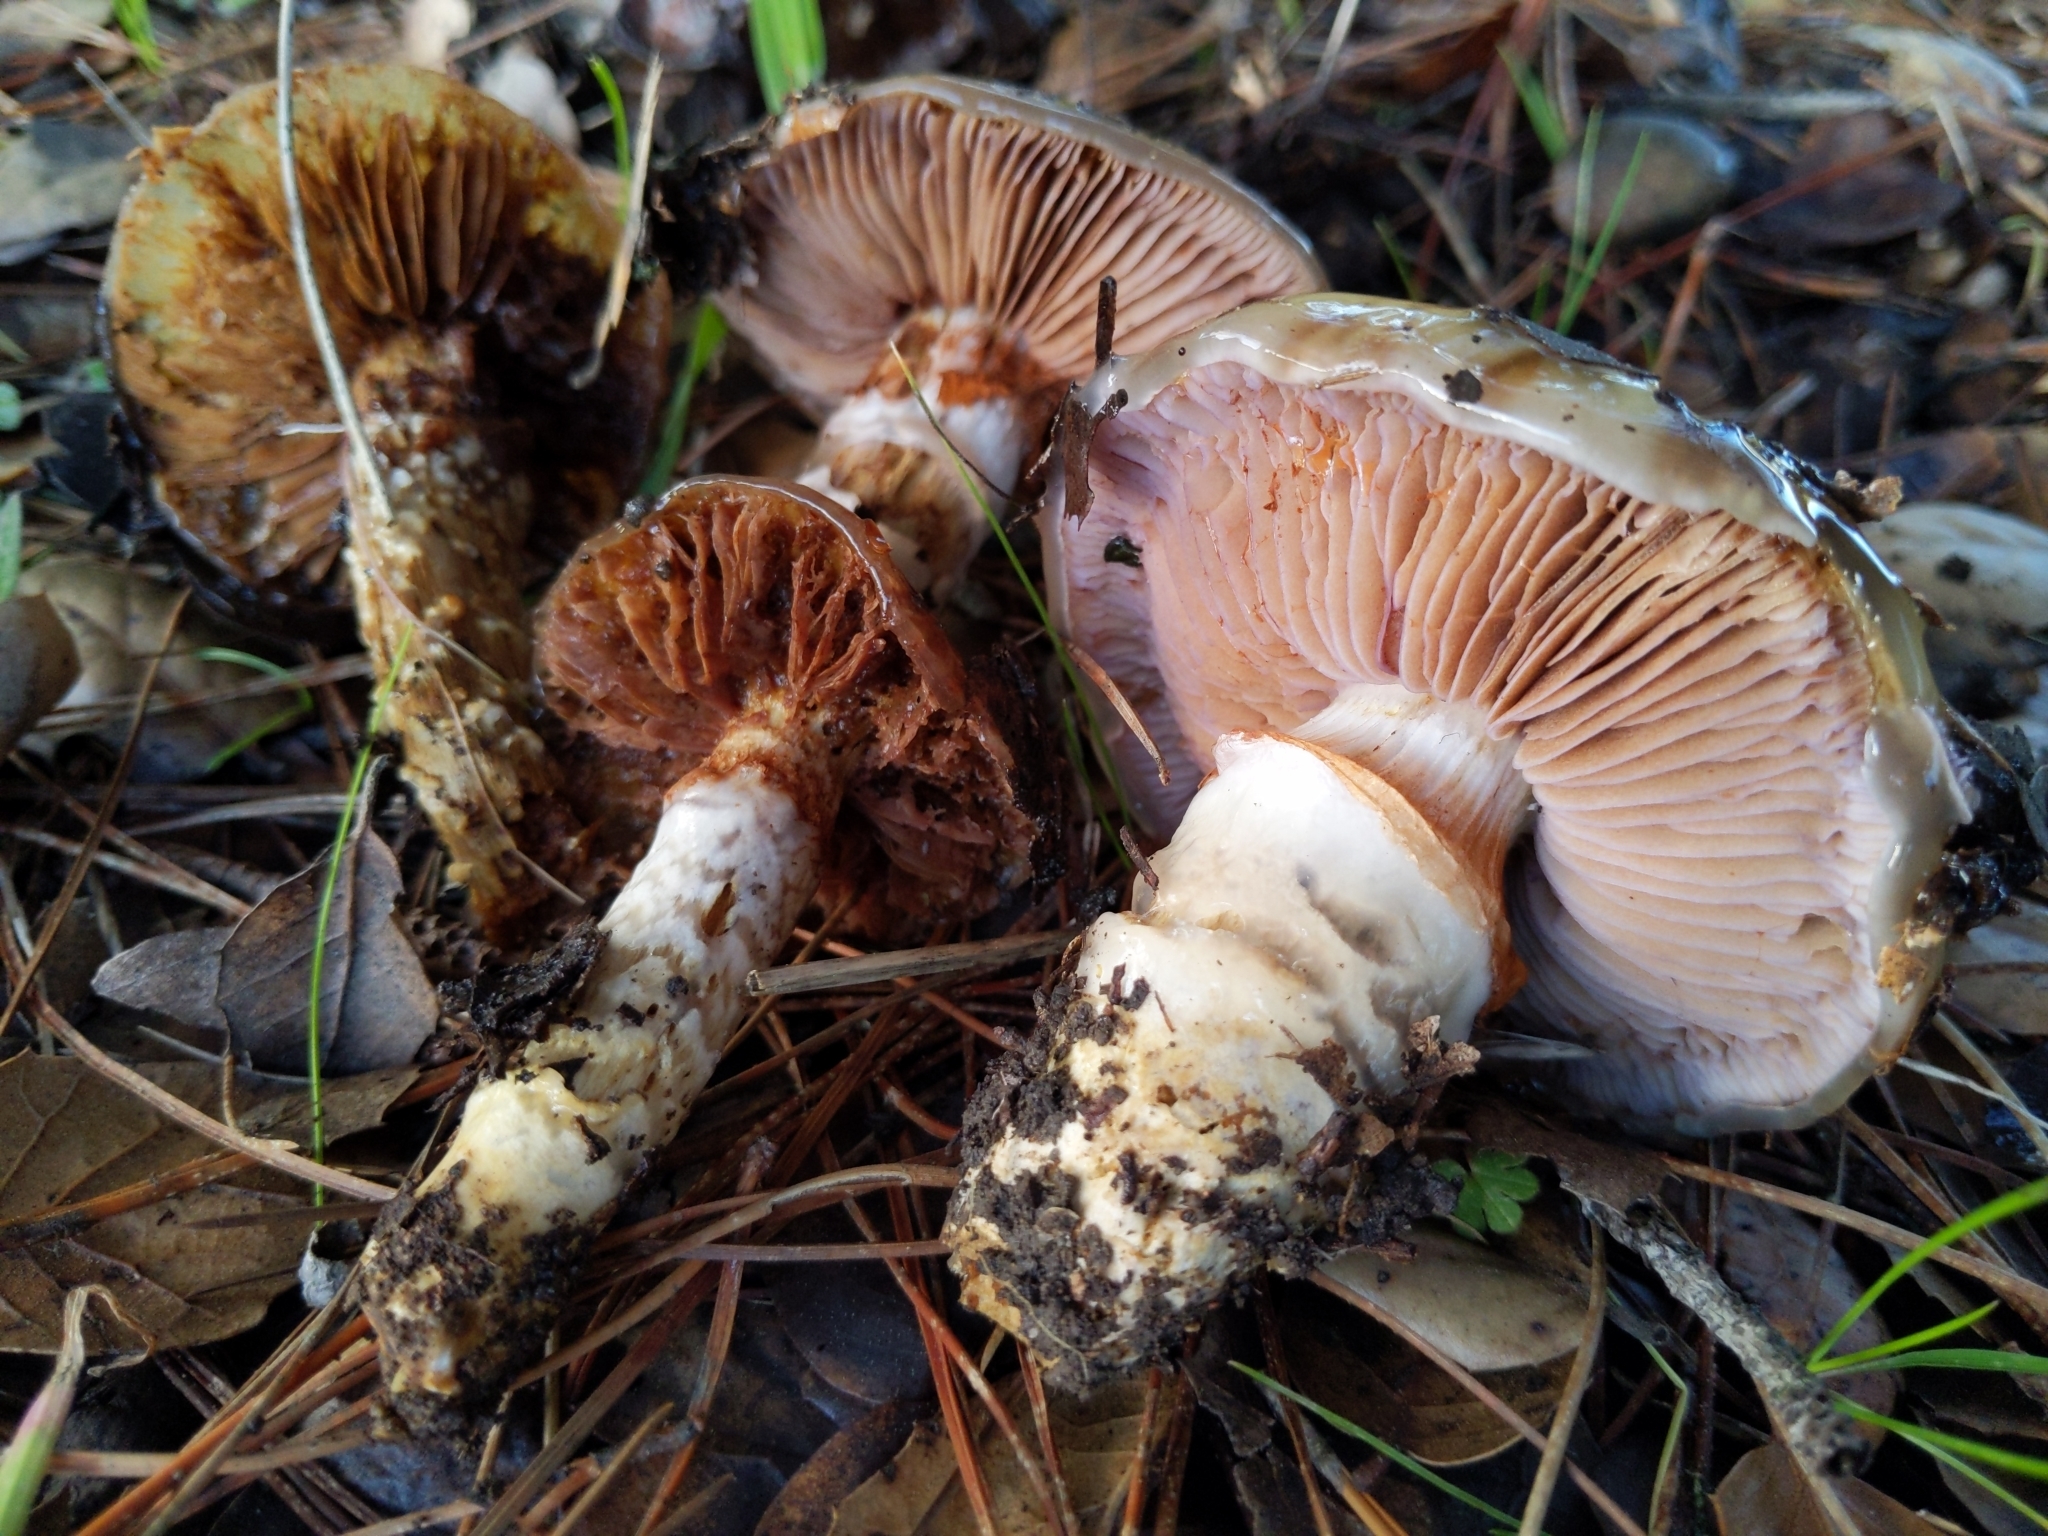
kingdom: Fungi
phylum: Basidiomycota
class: Agaricomycetes
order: Agaricales
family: Cortinariaceae
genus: Cortinarius
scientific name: Cortinarius glutinosoarmillatus
